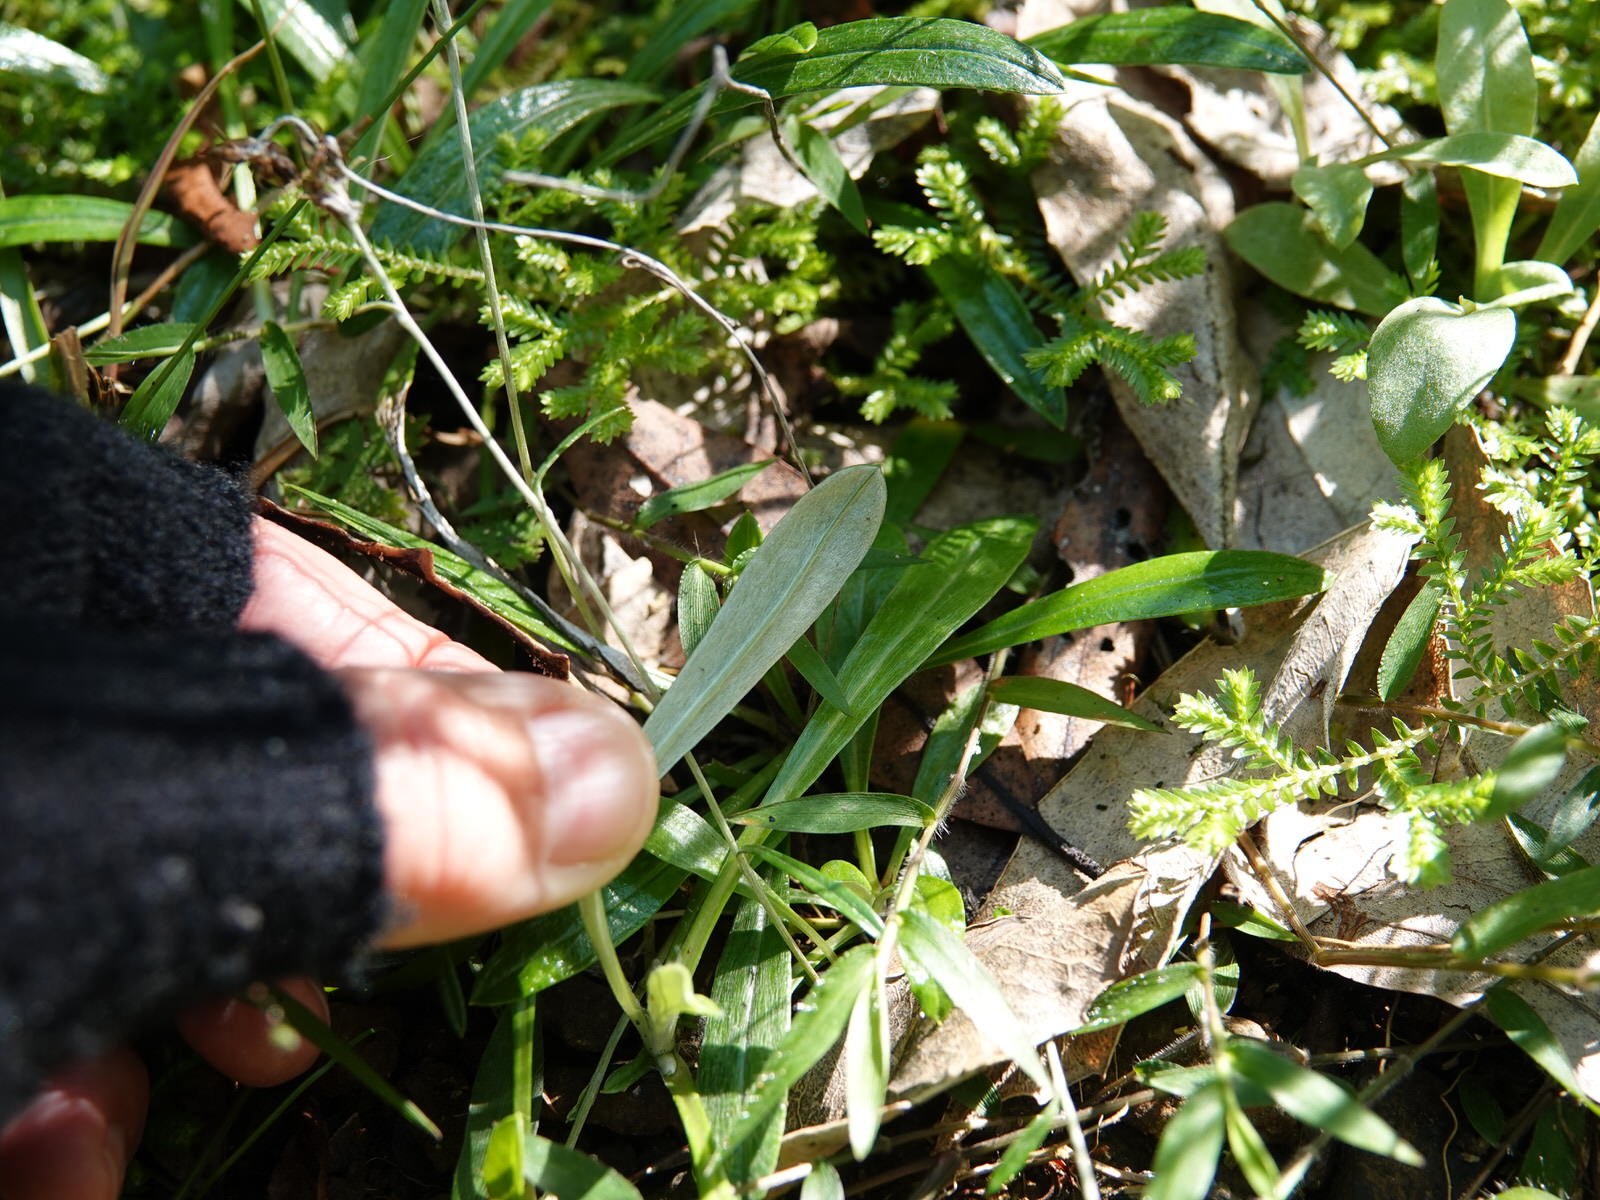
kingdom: Plantae
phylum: Tracheophyta
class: Magnoliopsida
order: Asterales
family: Asteraceae
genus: Euchiton
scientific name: Euchiton japonicus
